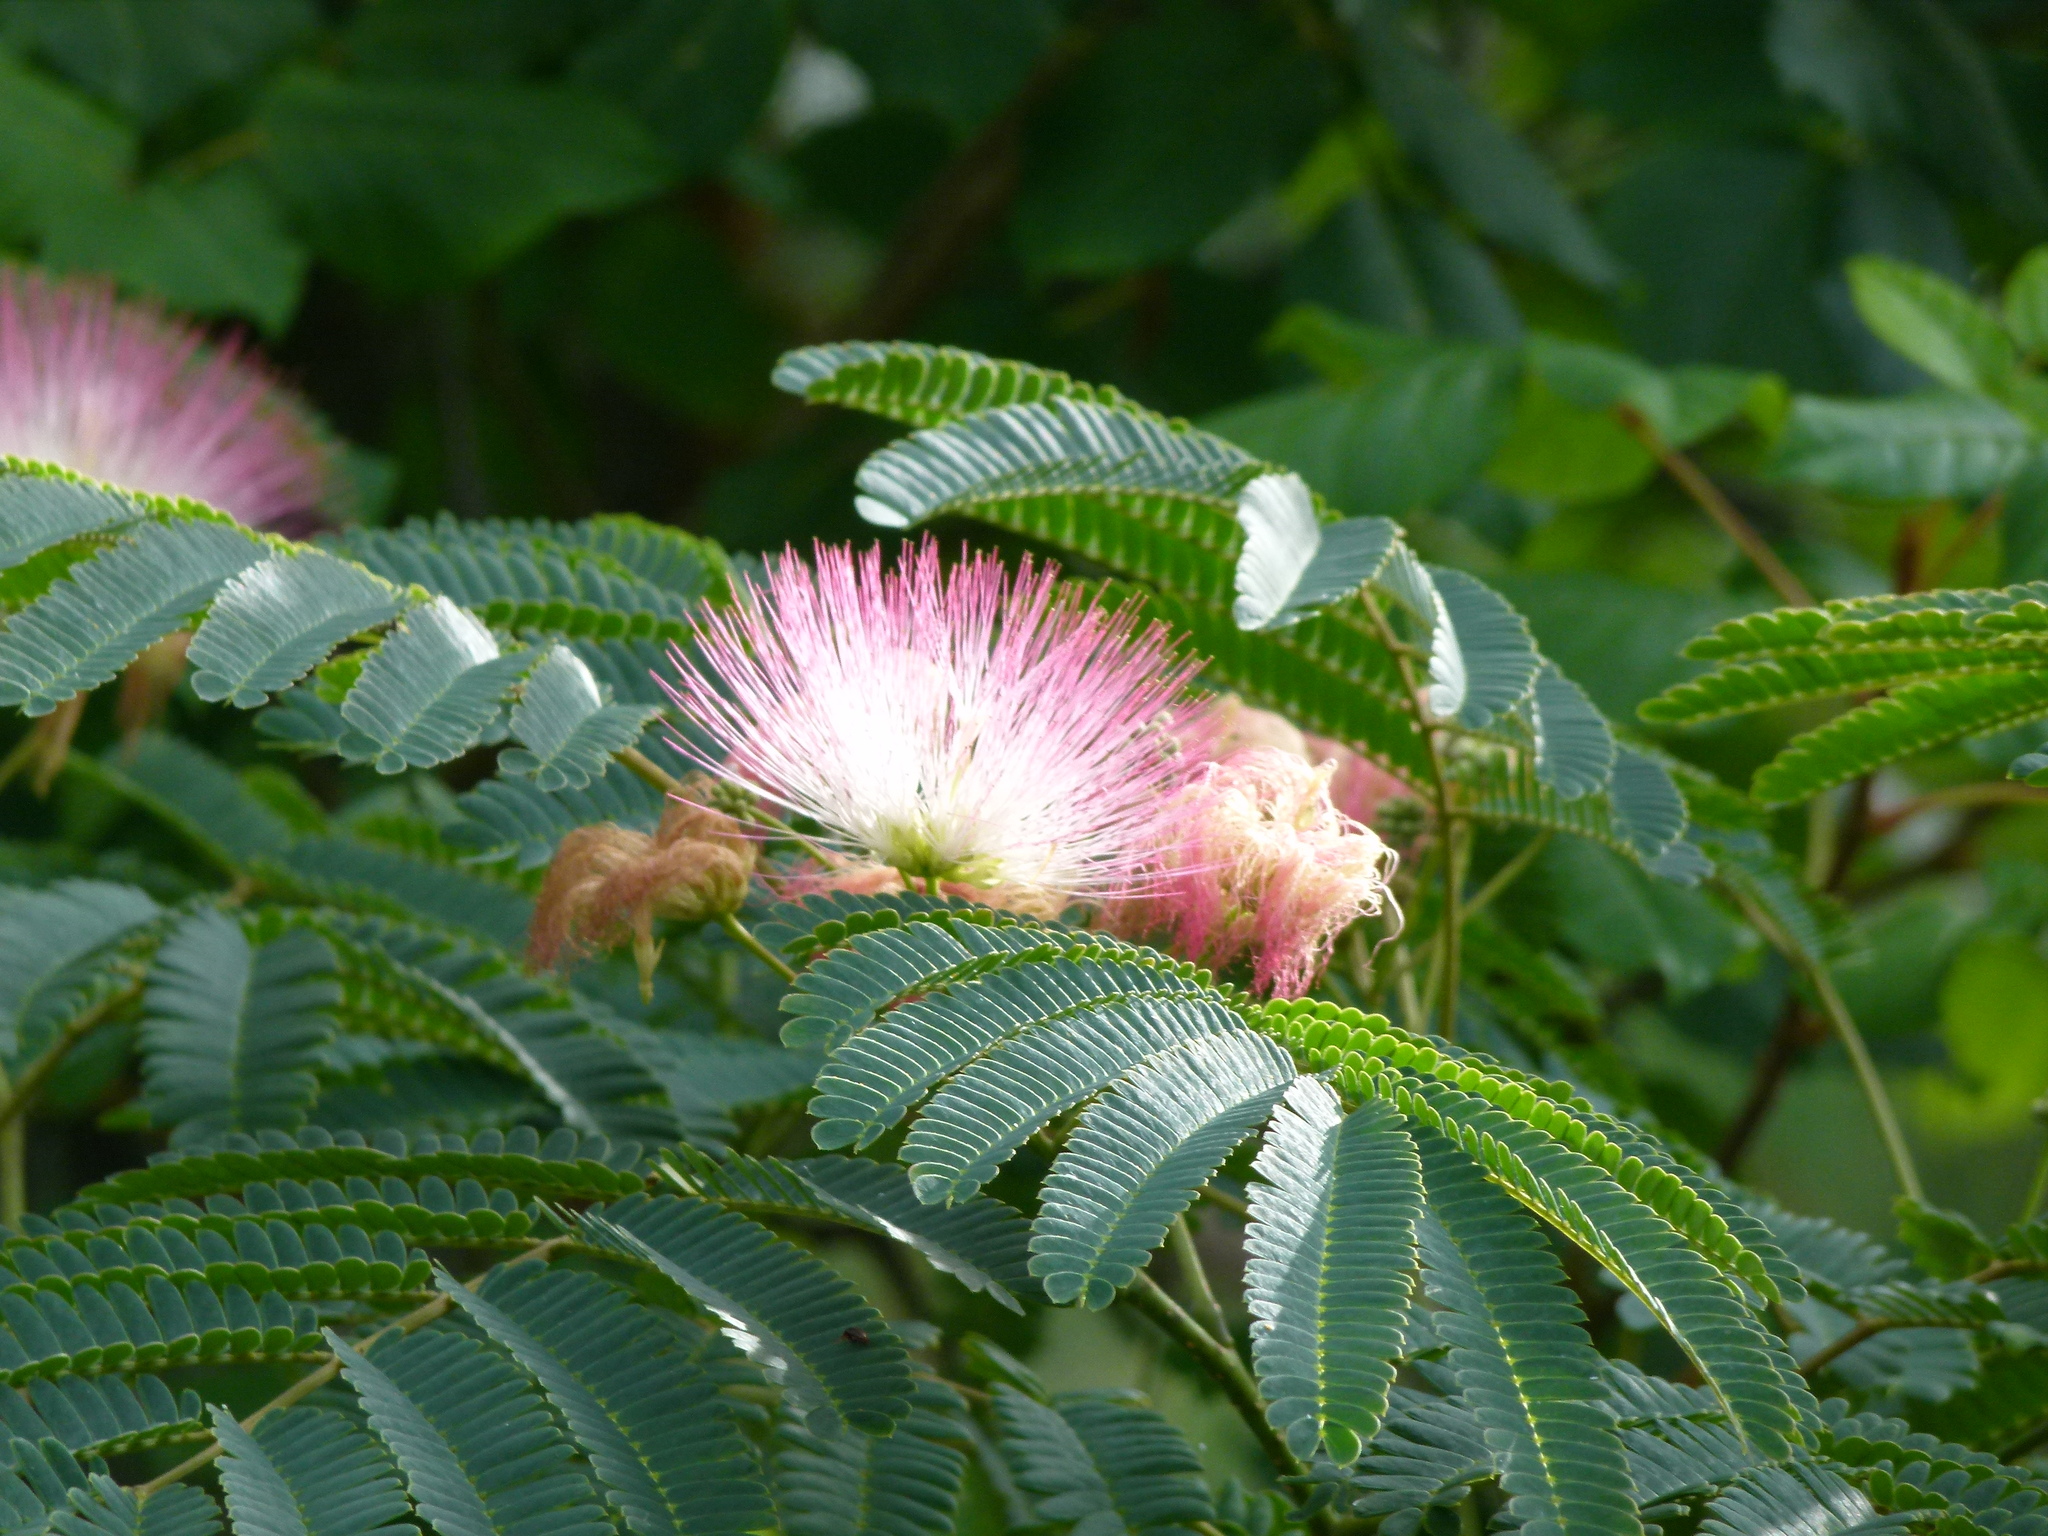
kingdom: Plantae
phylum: Tracheophyta
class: Magnoliopsida
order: Fabales
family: Fabaceae
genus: Albizia
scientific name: Albizia julibrissin
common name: Silktree
